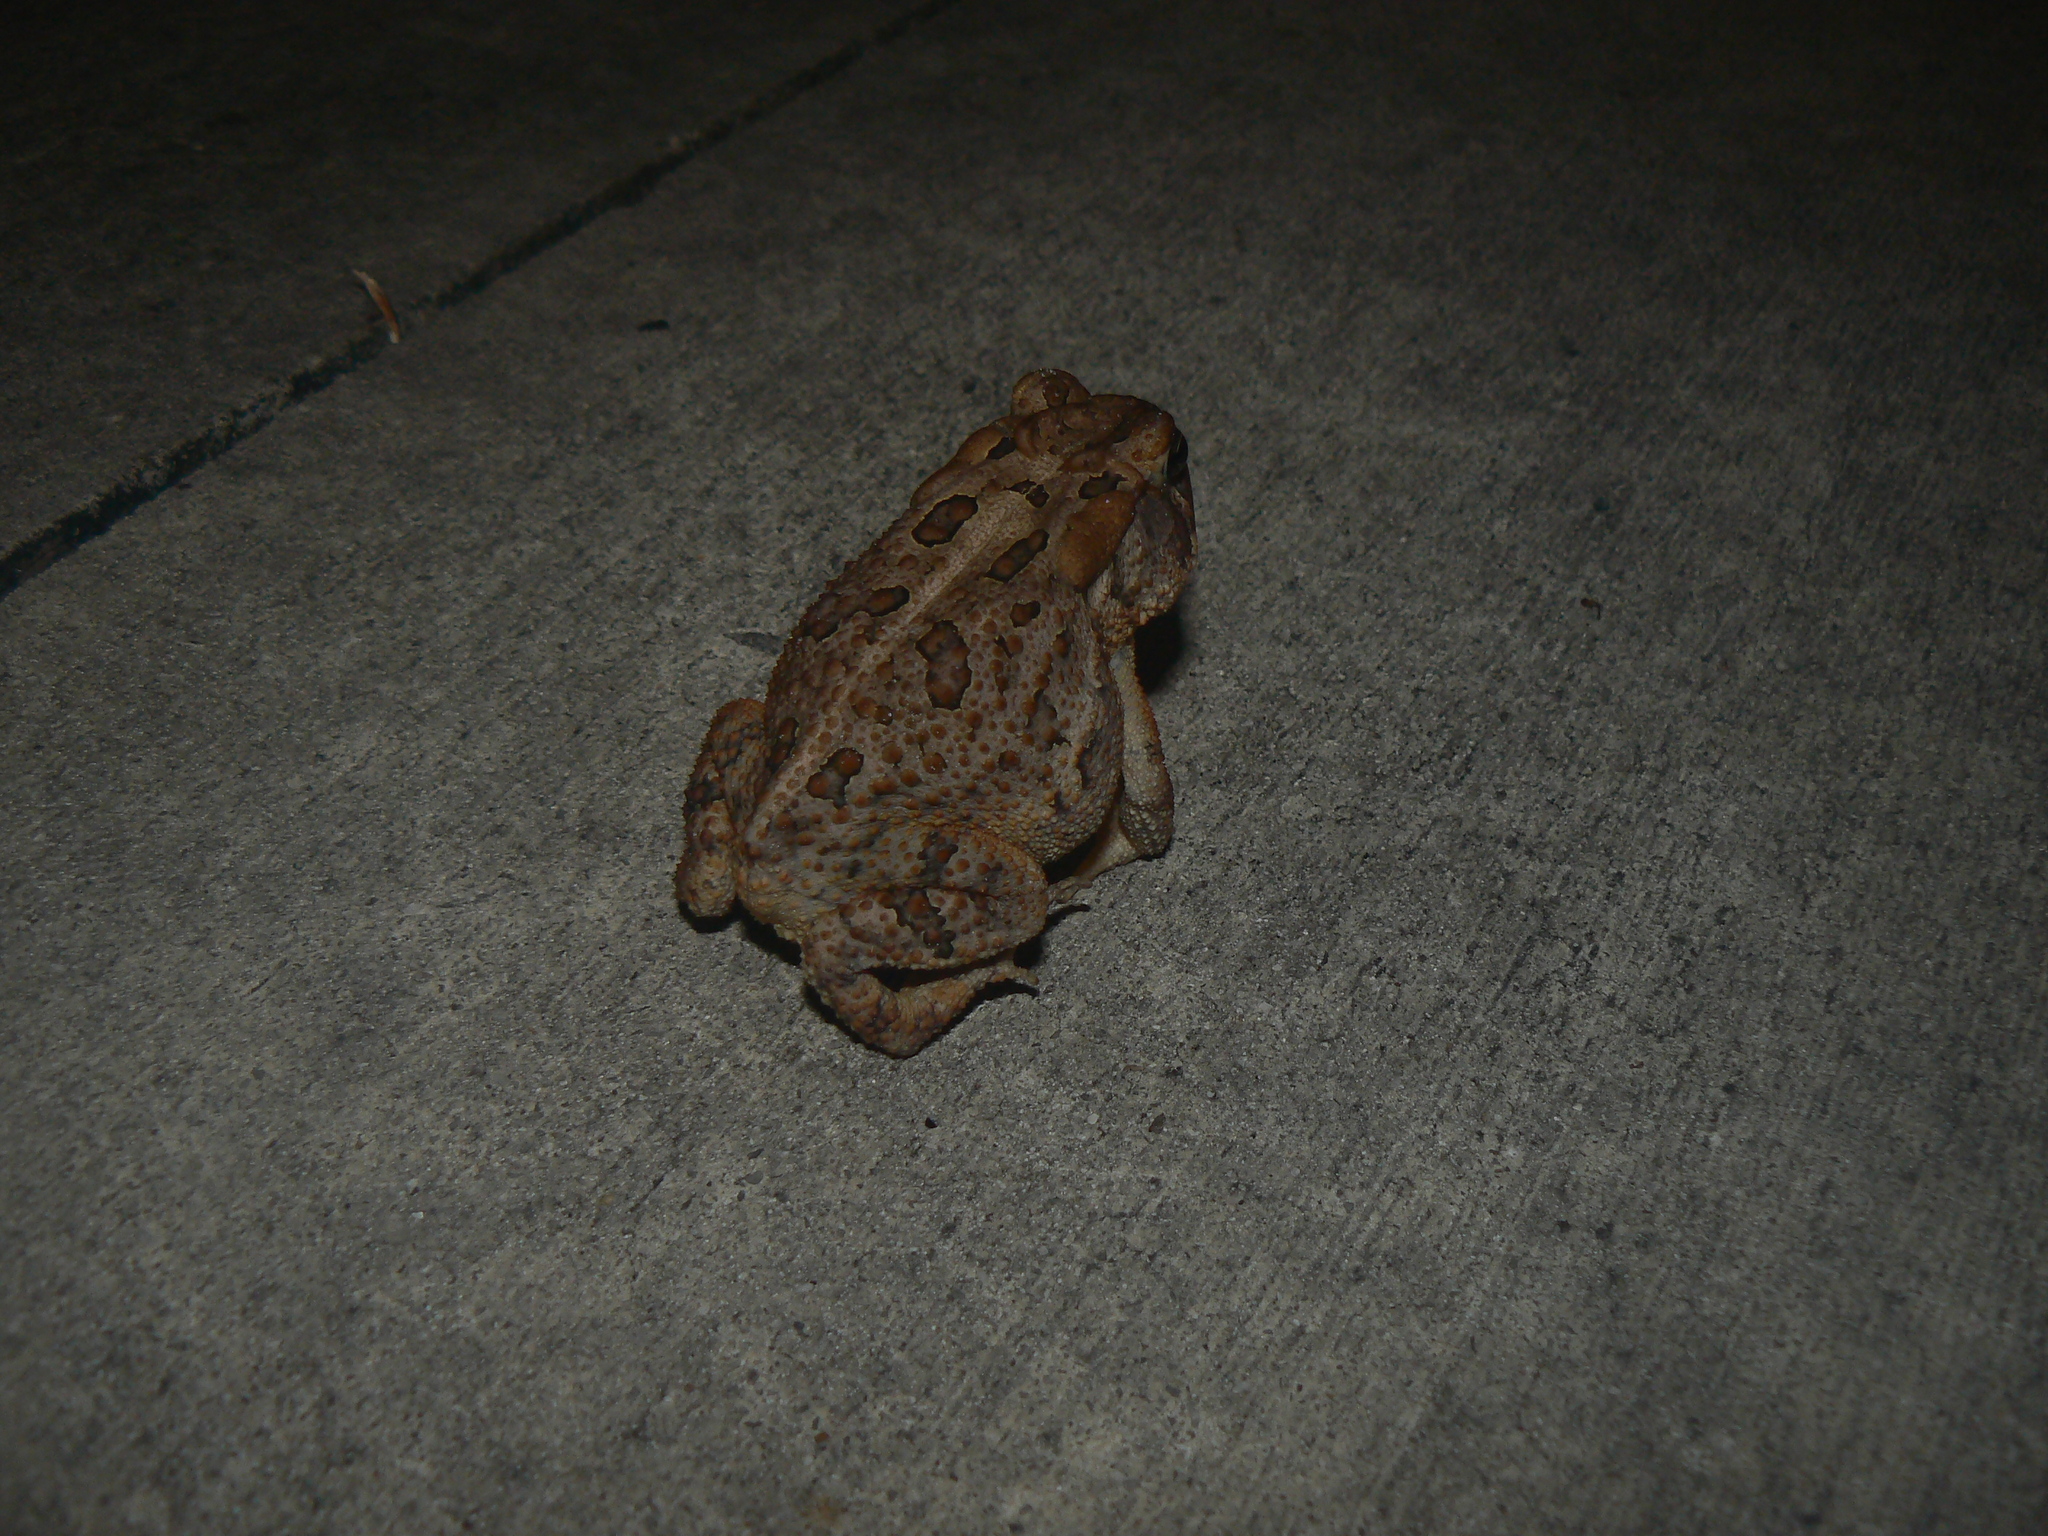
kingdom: Animalia
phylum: Chordata
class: Amphibia
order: Anura
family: Bufonidae
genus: Anaxyrus
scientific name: Anaxyrus terrestris
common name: Southern toad
